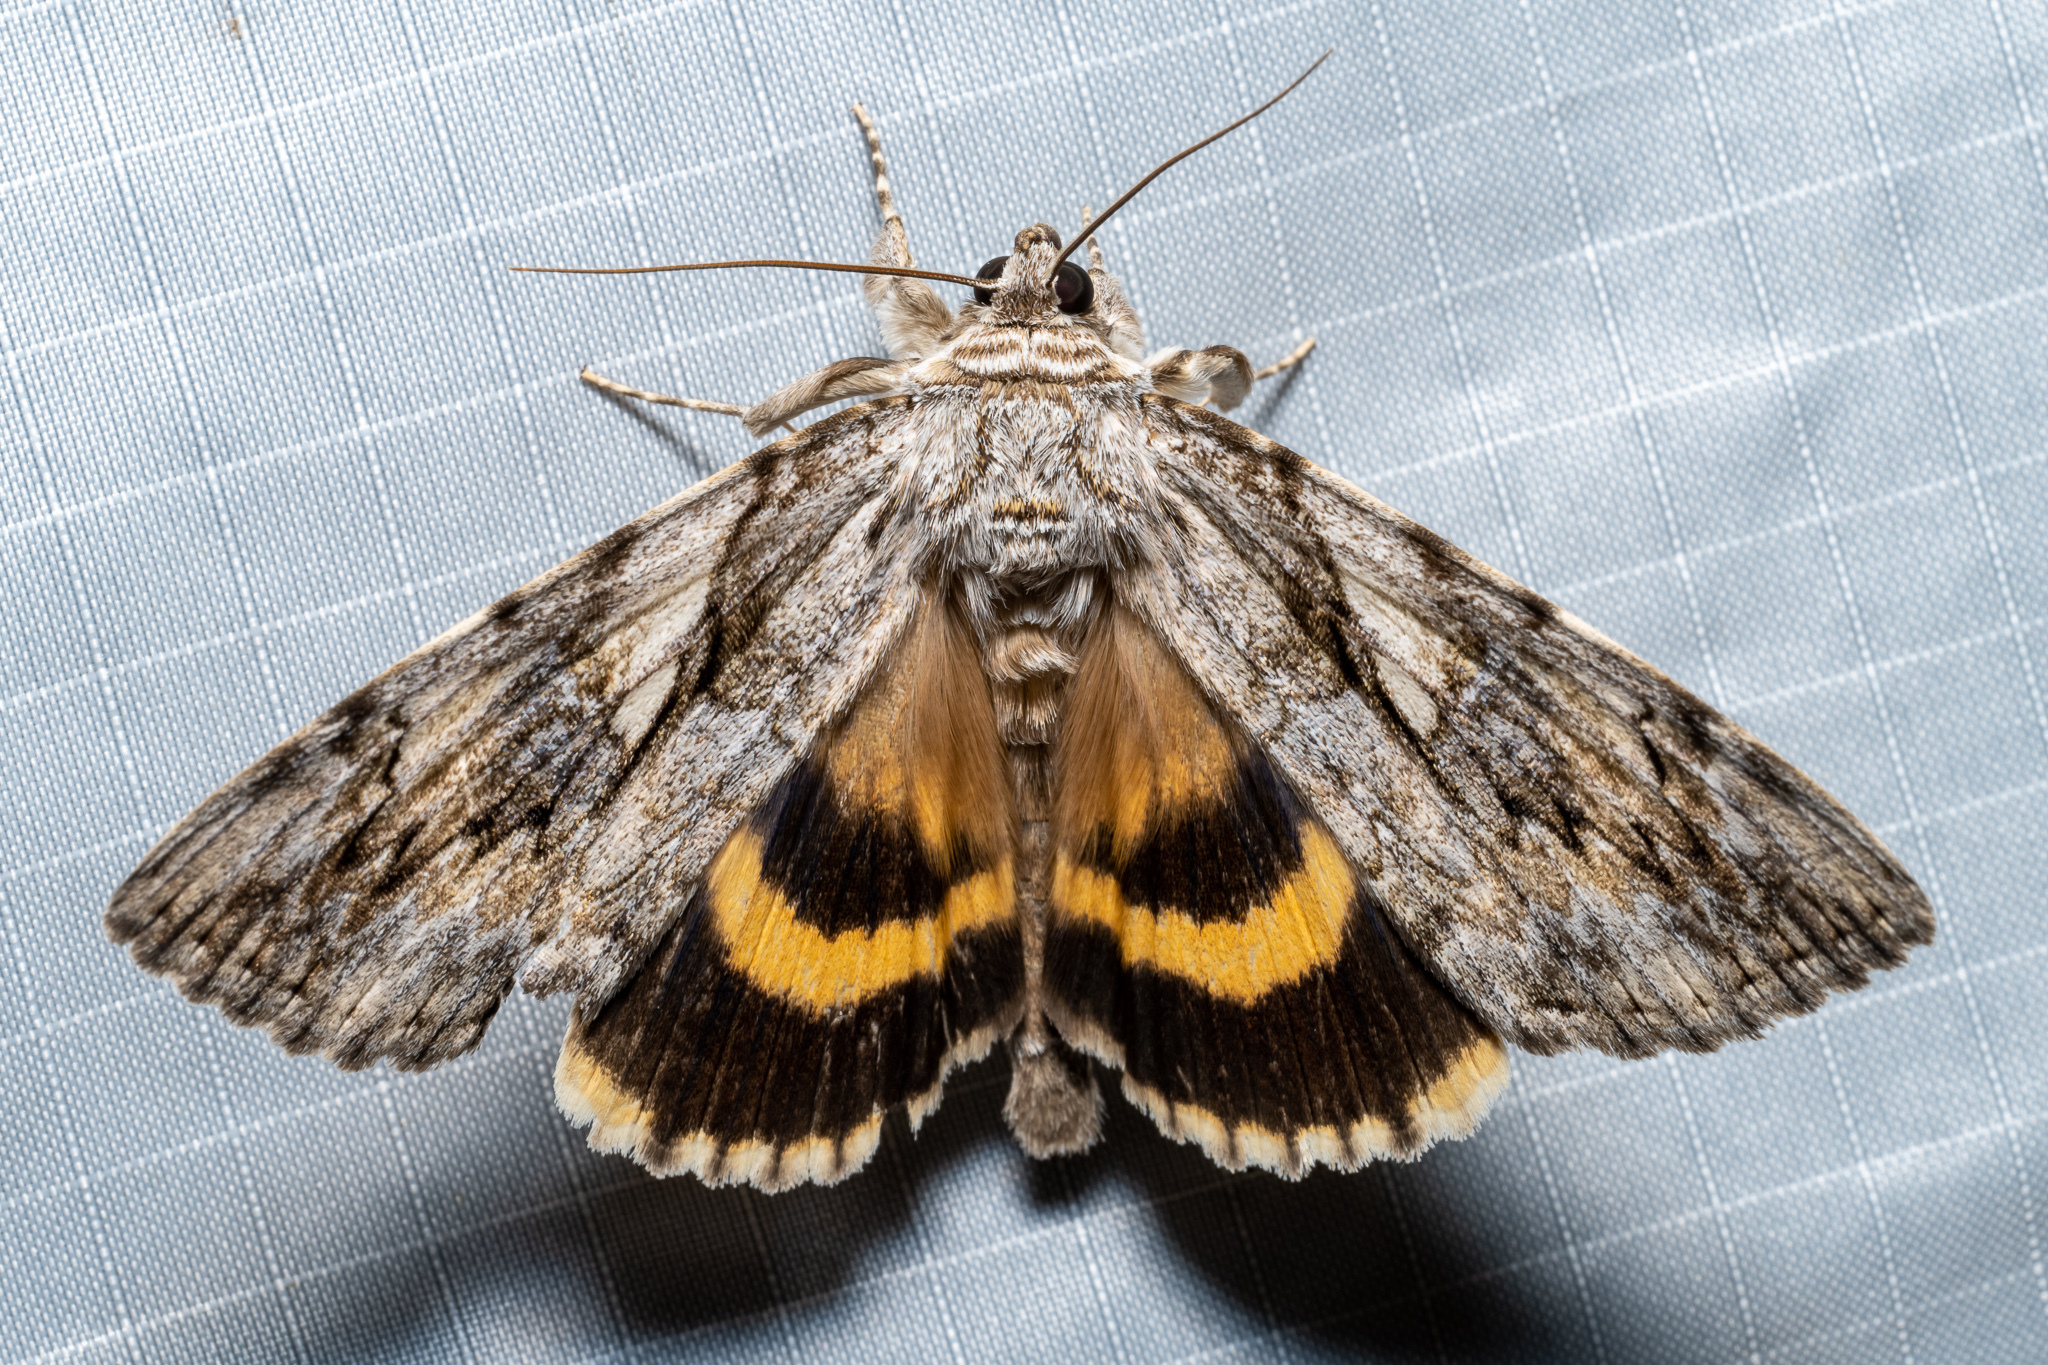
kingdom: Animalia
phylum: Arthropoda
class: Insecta
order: Lepidoptera
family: Erebidae
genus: Catocala
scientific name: Catocala cerogama
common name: Yellow banded underwing
